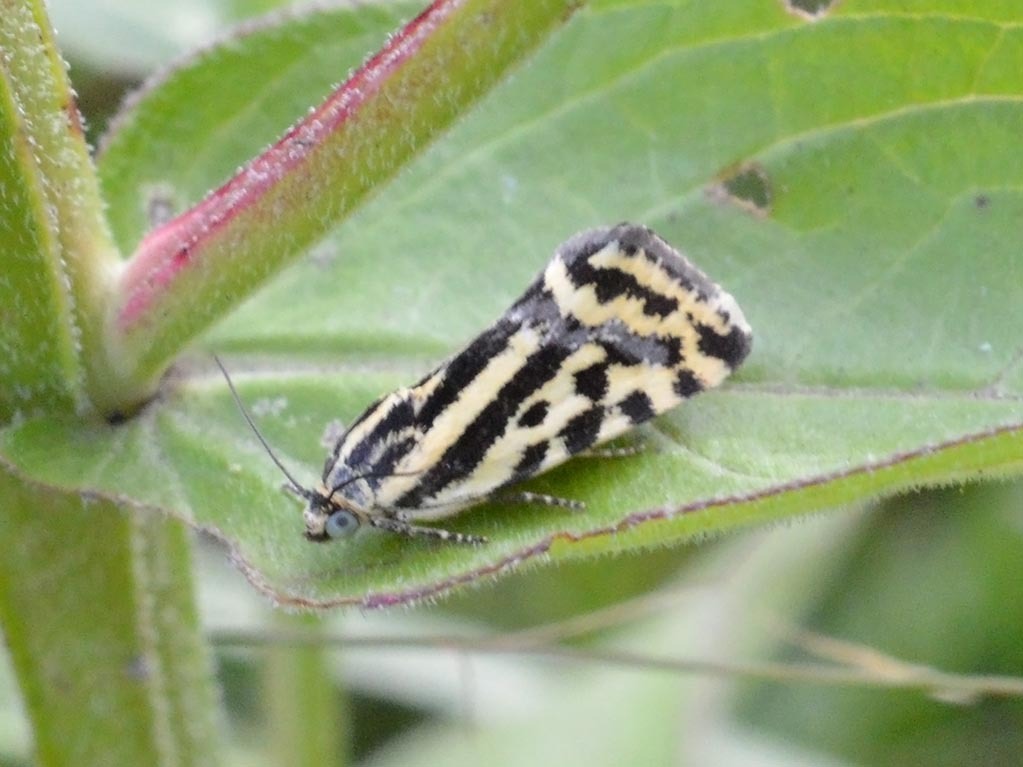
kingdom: Animalia
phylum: Arthropoda
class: Insecta
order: Lepidoptera
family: Noctuidae
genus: Acontia
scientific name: Acontia trabealis
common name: Spotted sulphur
